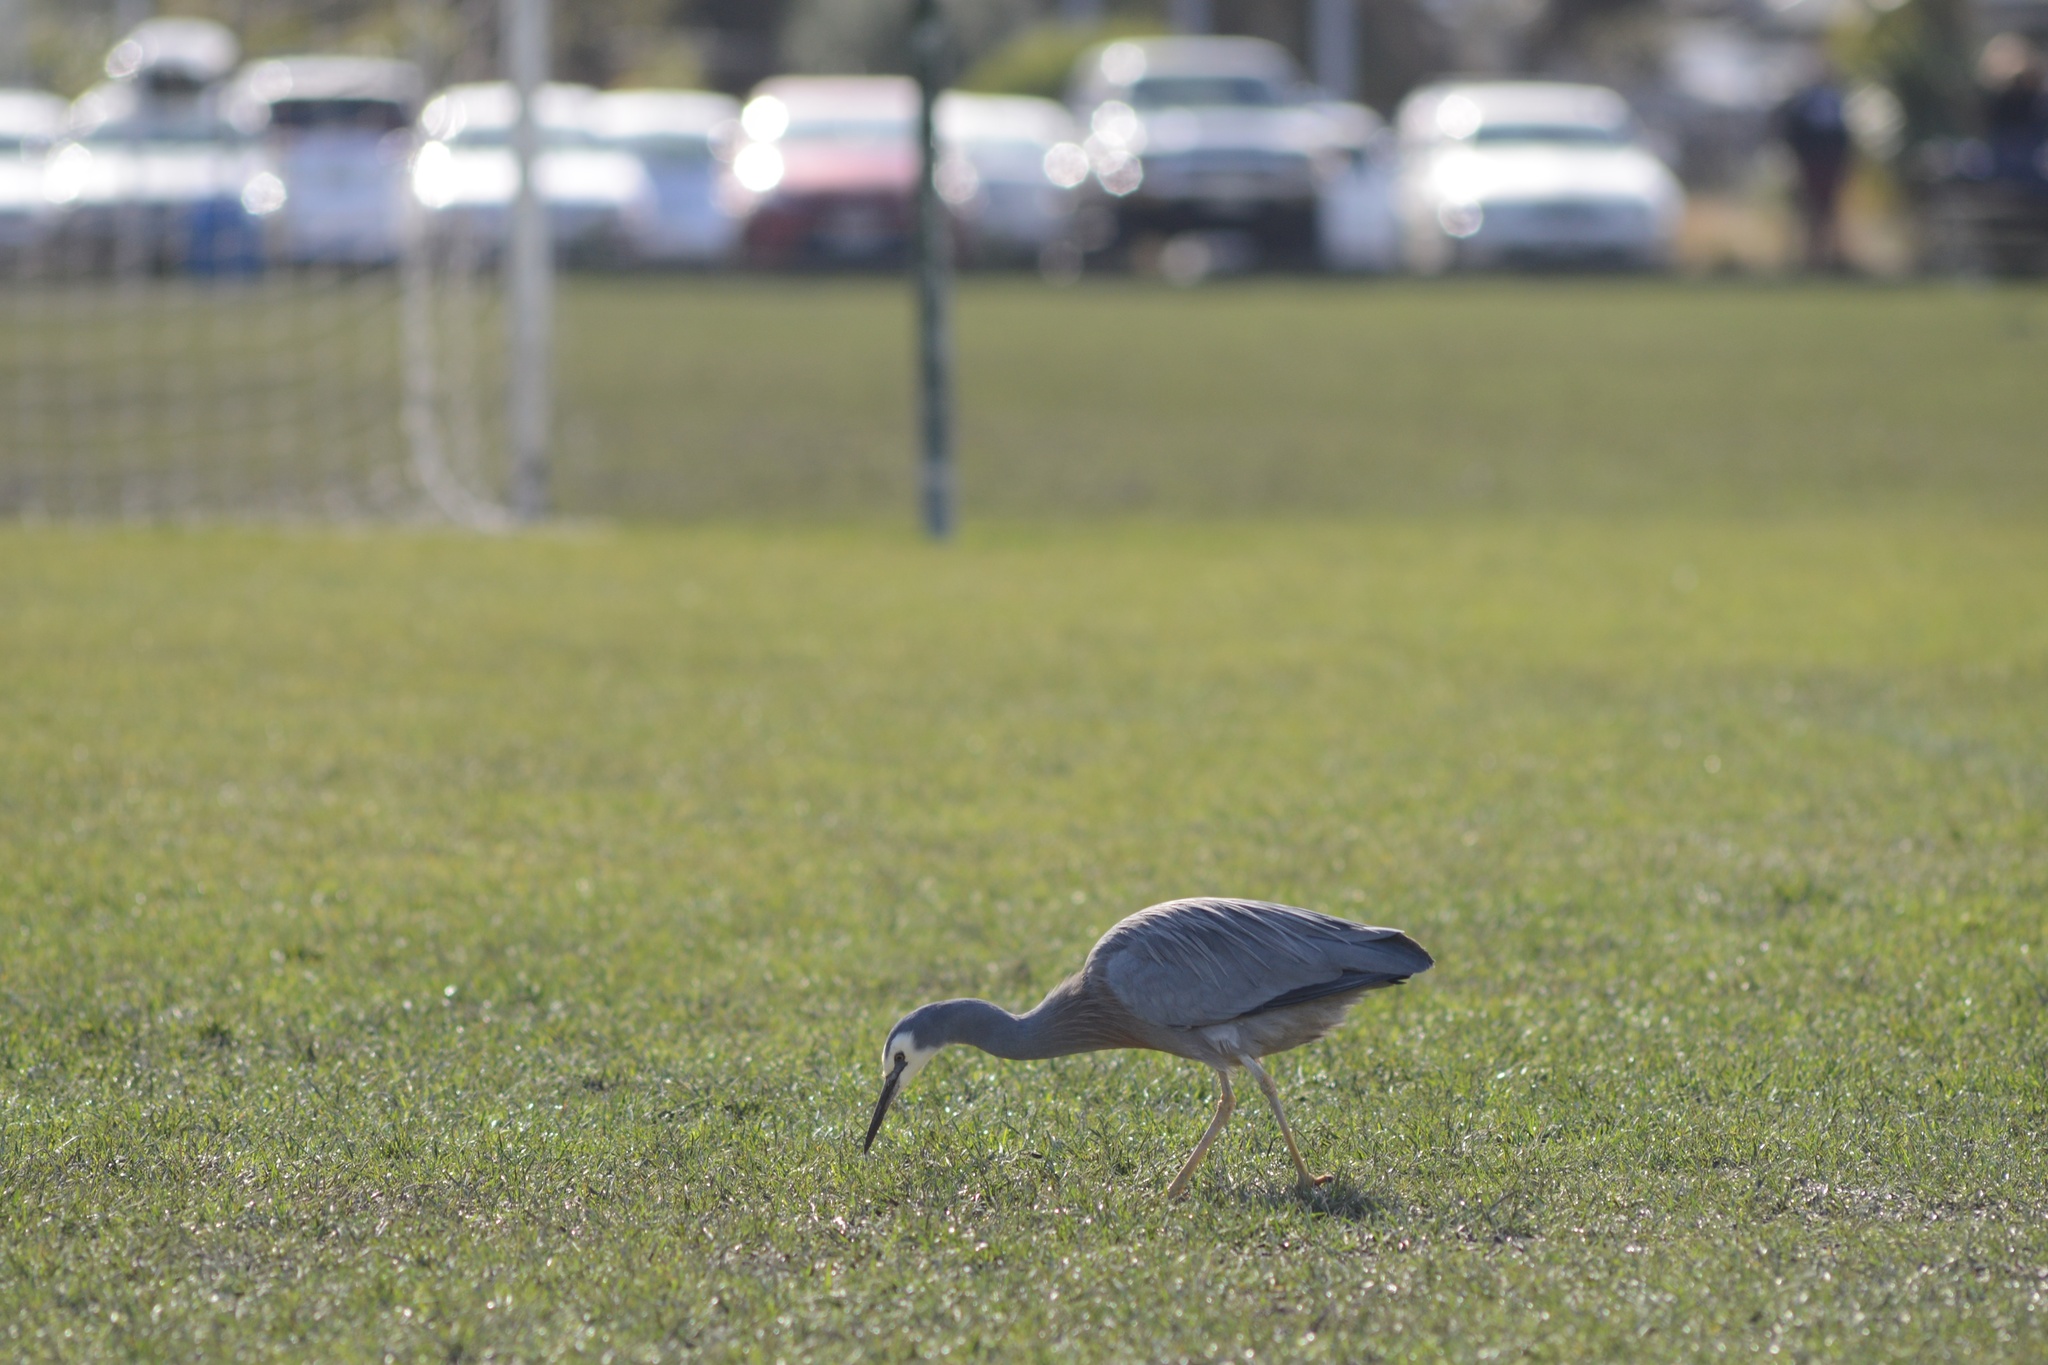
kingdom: Animalia
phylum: Chordata
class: Aves
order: Pelecaniformes
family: Ardeidae
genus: Egretta
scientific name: Egretta novaehollandiae
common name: White-faced heron
